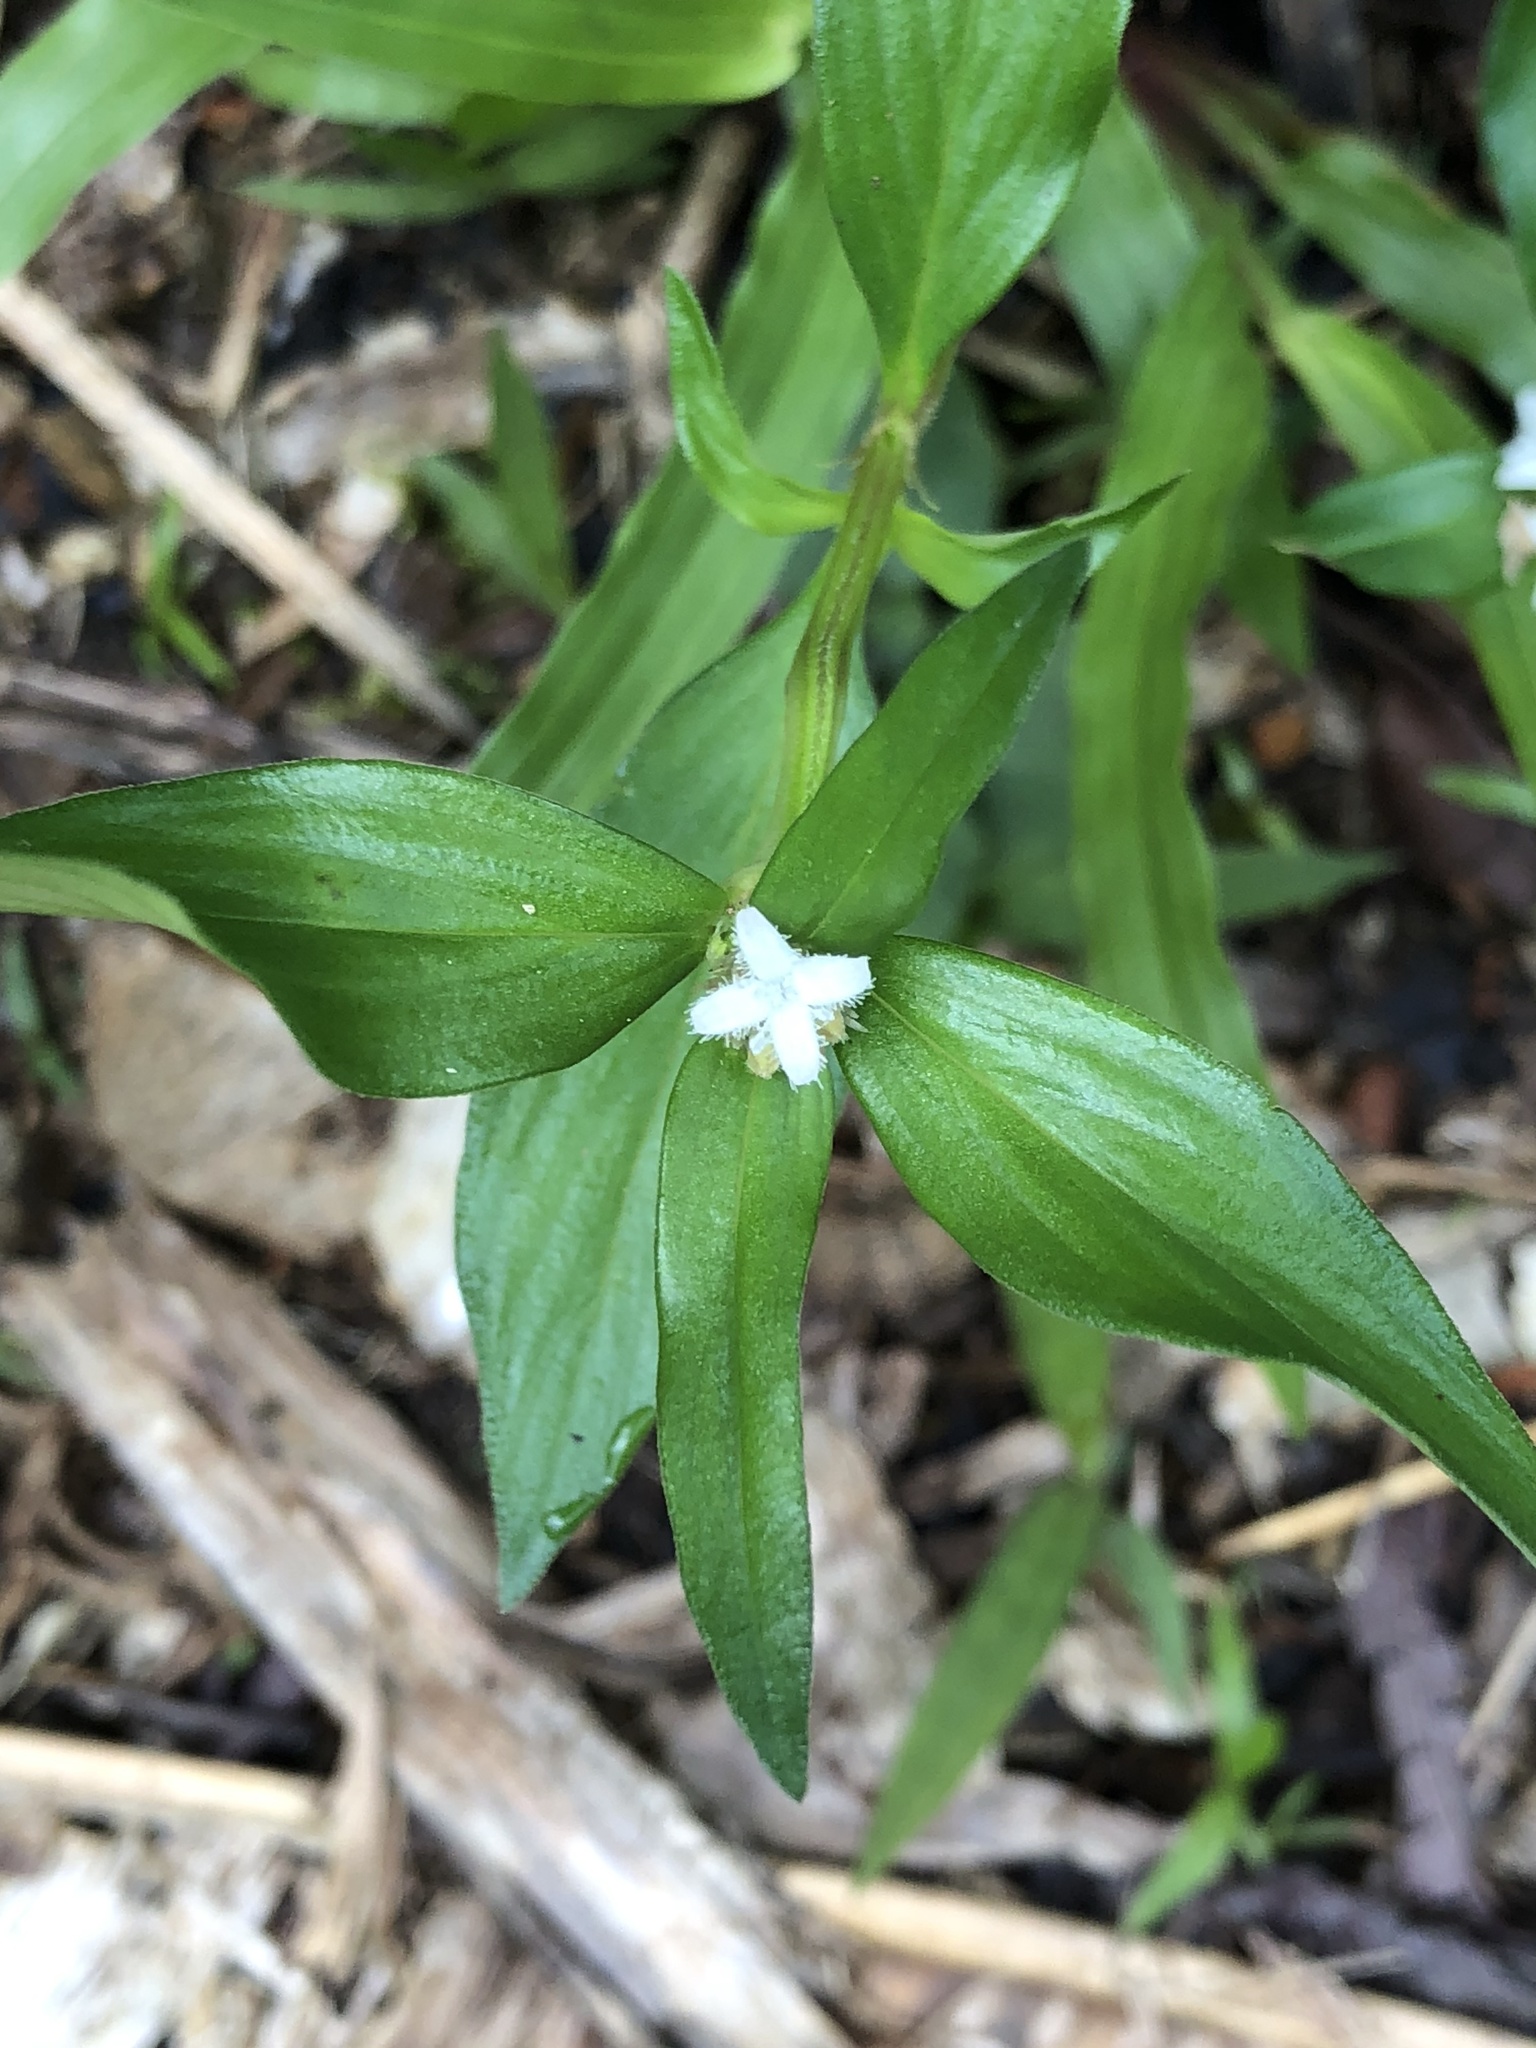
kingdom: Plantae
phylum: Tracheophyta
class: Magnoliopsida
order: Gentianales
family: Rubiaceae
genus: Spermacoce
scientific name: Spermacoce remota
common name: Woodland false buttonweed
